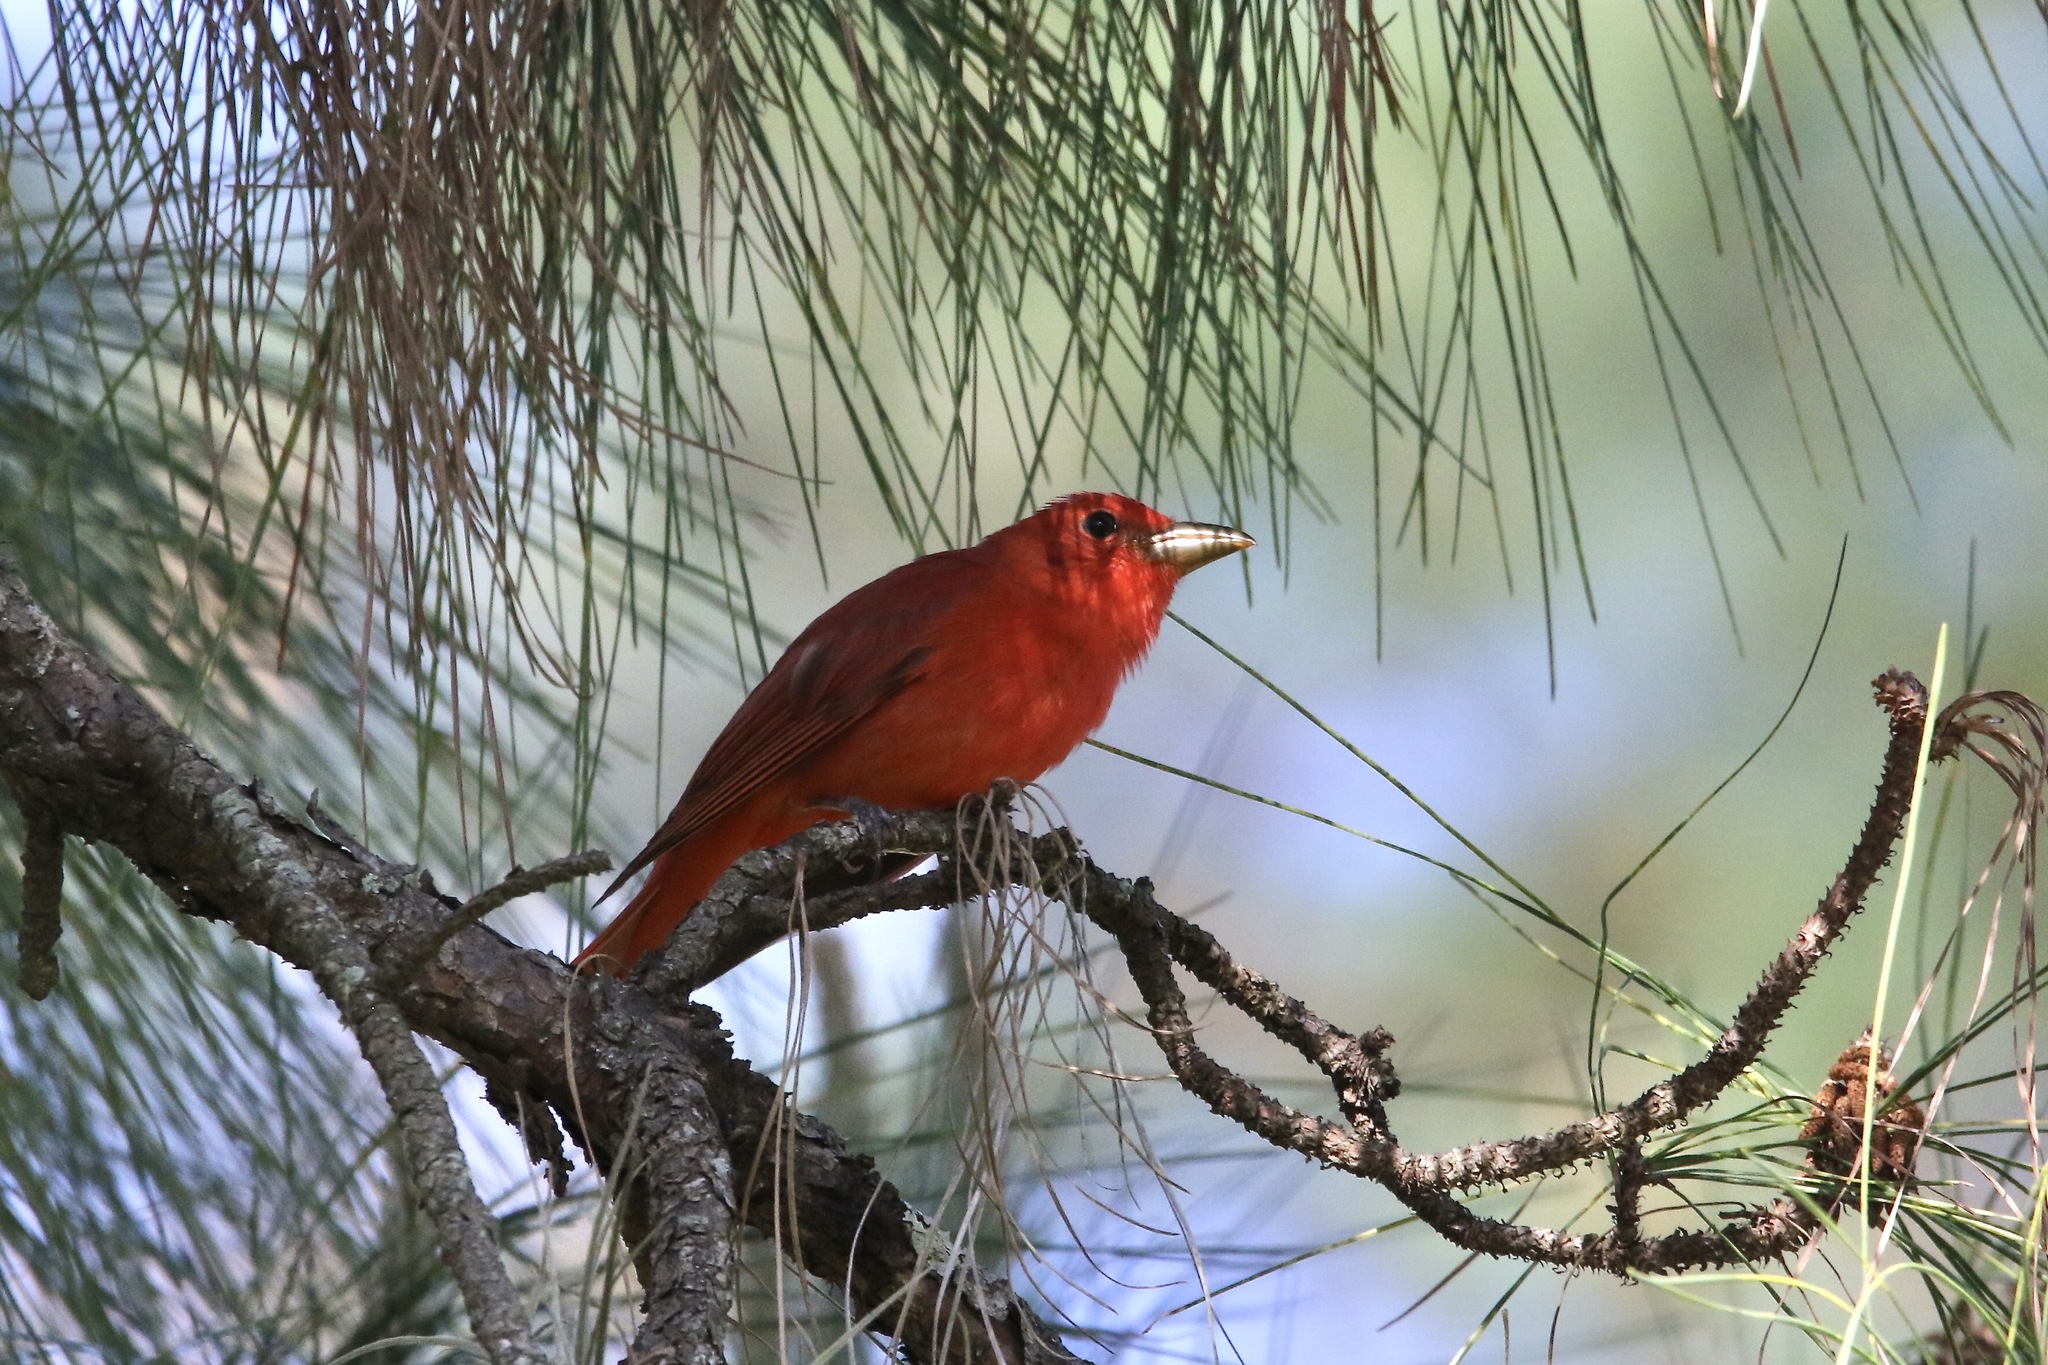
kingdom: Animalia
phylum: Chordata
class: Aves
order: Passeriformes
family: Cardinalidae
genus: Piranga
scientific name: Piranga rubra
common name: Summer tanager
